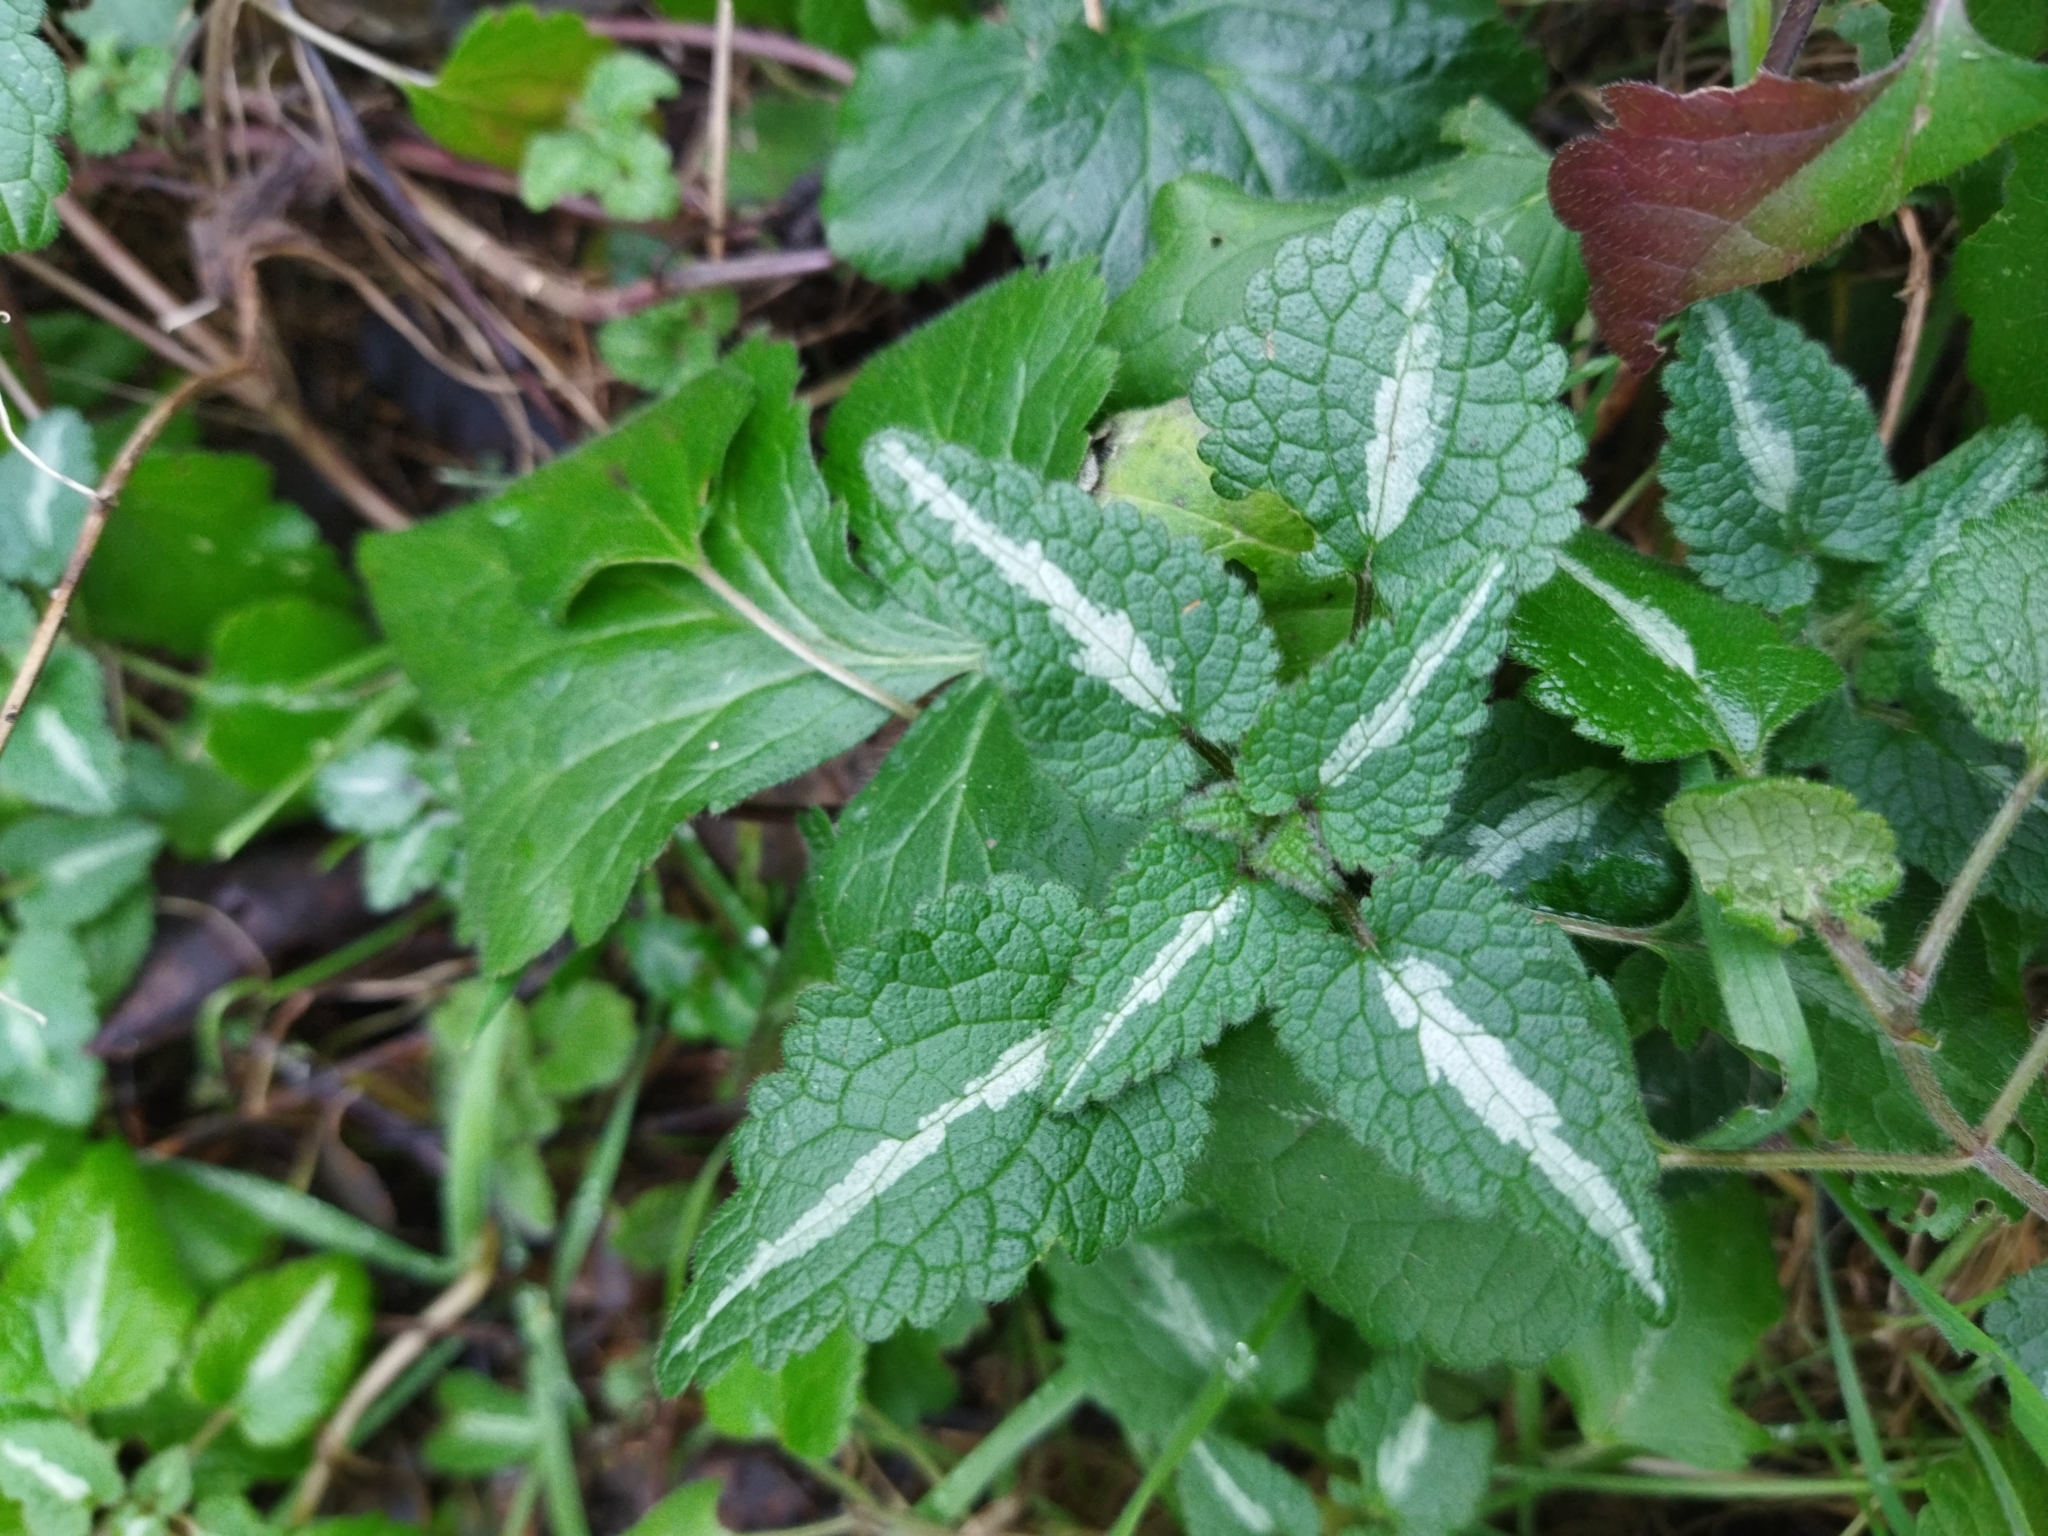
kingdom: Plantae
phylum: Tracheophyta
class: Magnoliopsida
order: Lamiales
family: Lamiaceae
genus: Lamium
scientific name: Lamium maculatum
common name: Spotted dead-nettle
